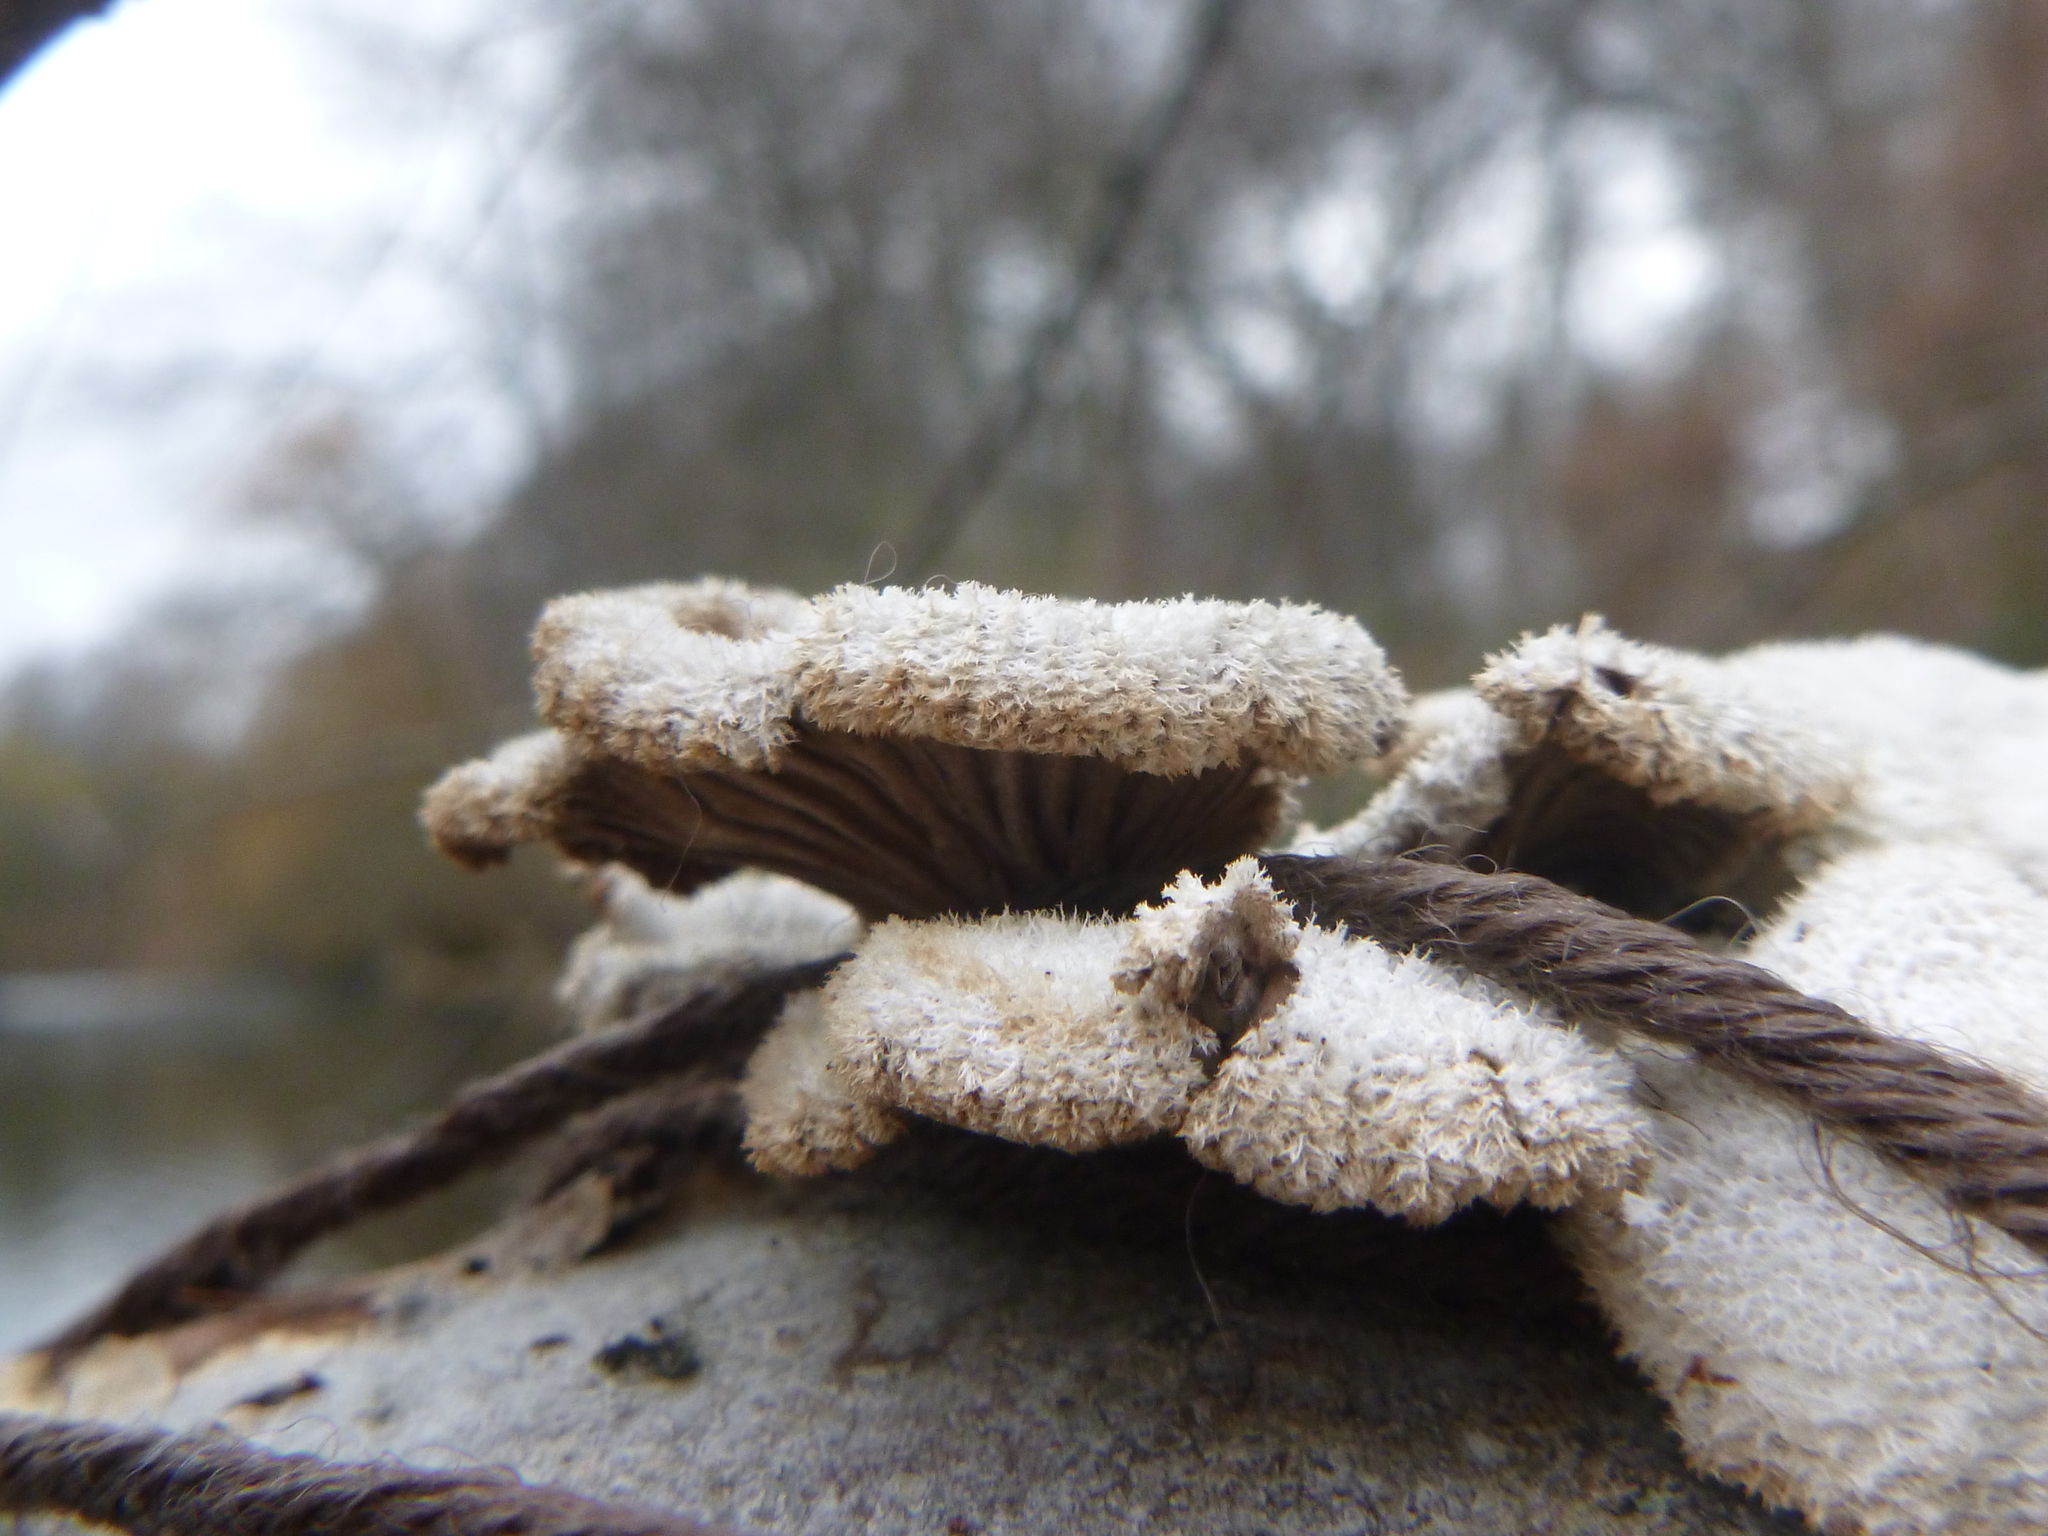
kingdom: Fungi
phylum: Basidiomycota
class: Agaricomycetes
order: Agaricales
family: Schizophyllaceae
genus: Schizophyllum
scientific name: Schizophyllum commune
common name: Common porecrust
